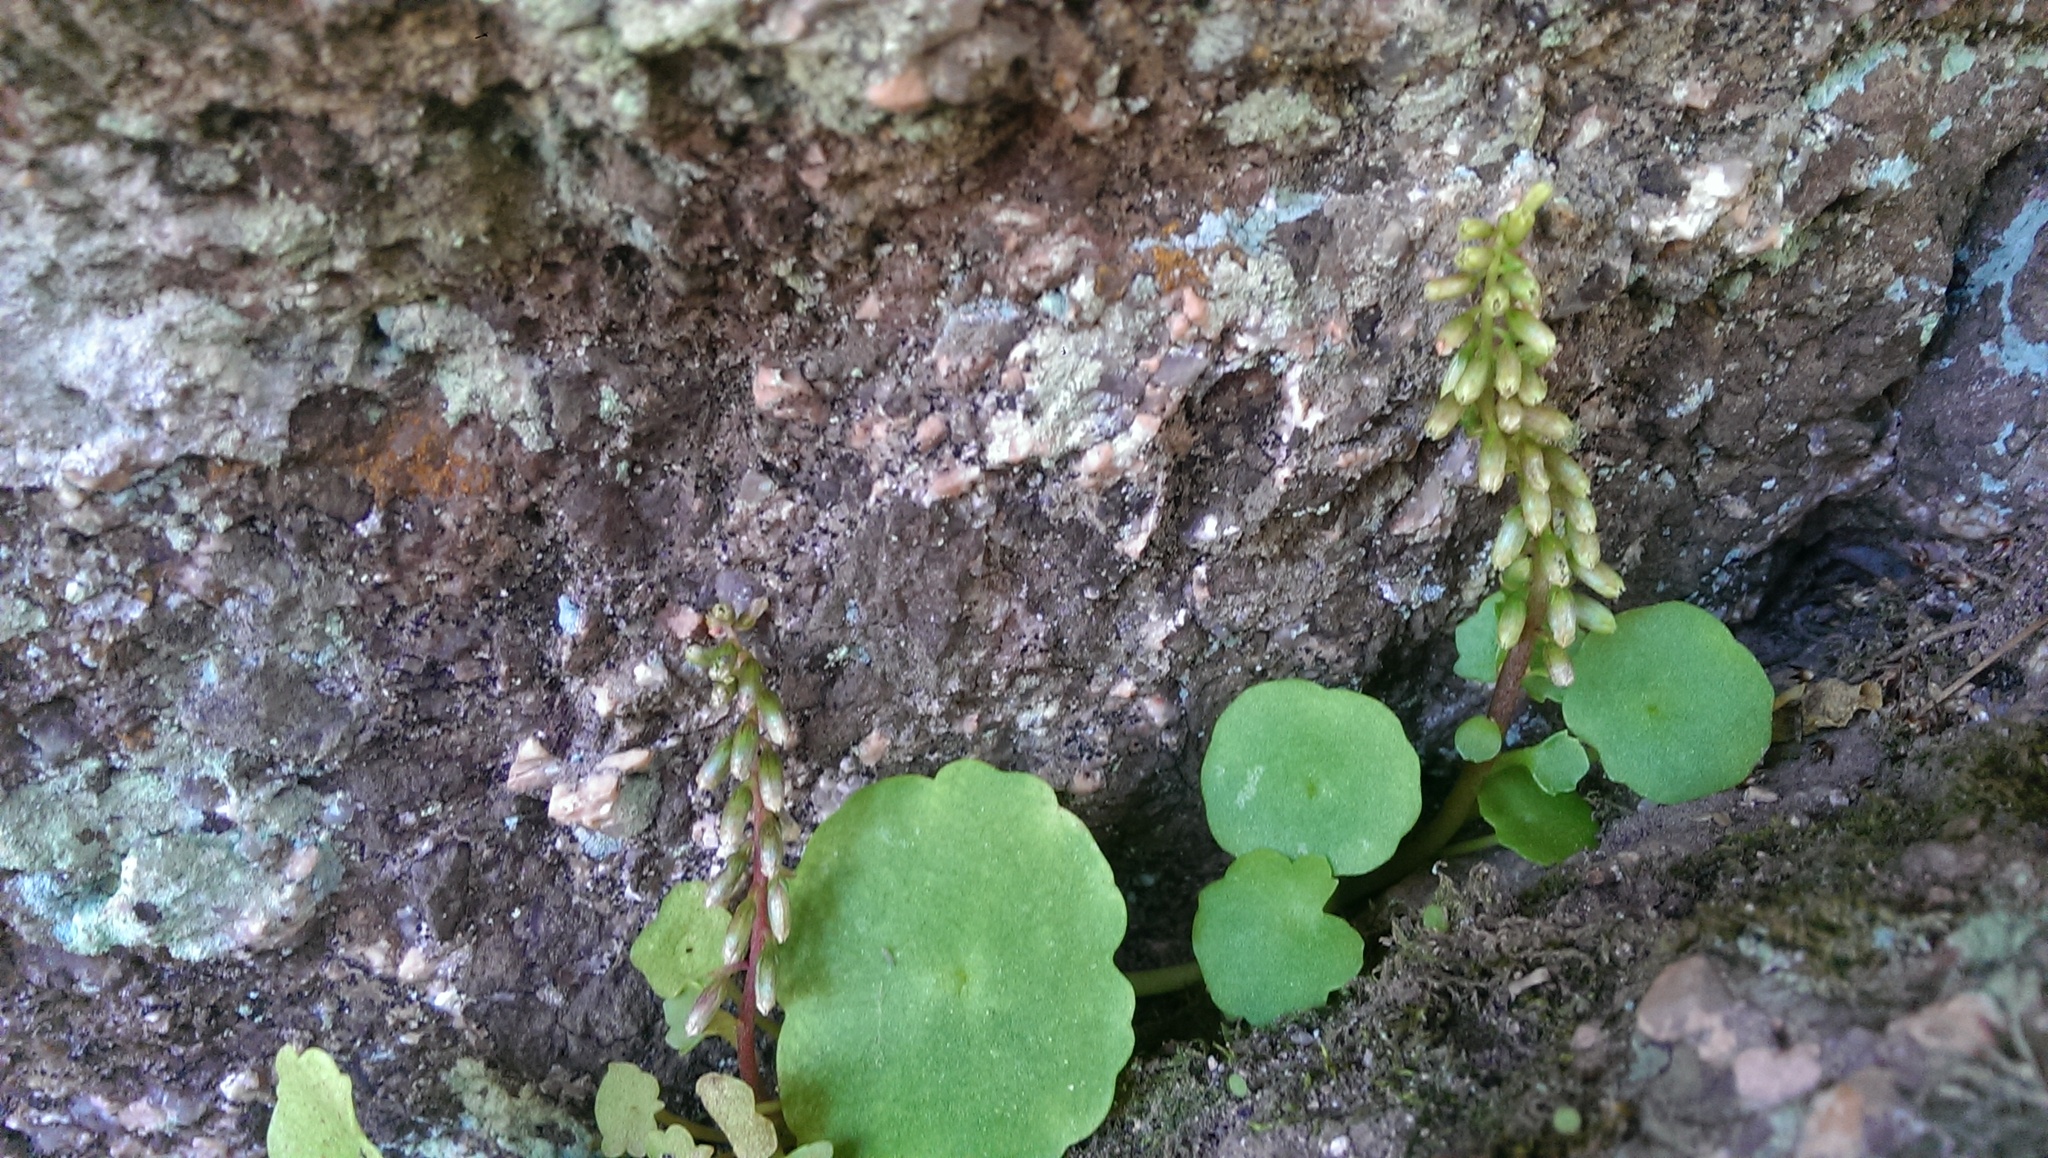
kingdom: Plantae
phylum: Tracheophyta
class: Magnoliopsida
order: Saxifragales
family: Crassulaceae
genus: Umbilicus
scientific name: Umbilicus rupestris
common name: Navelwort
